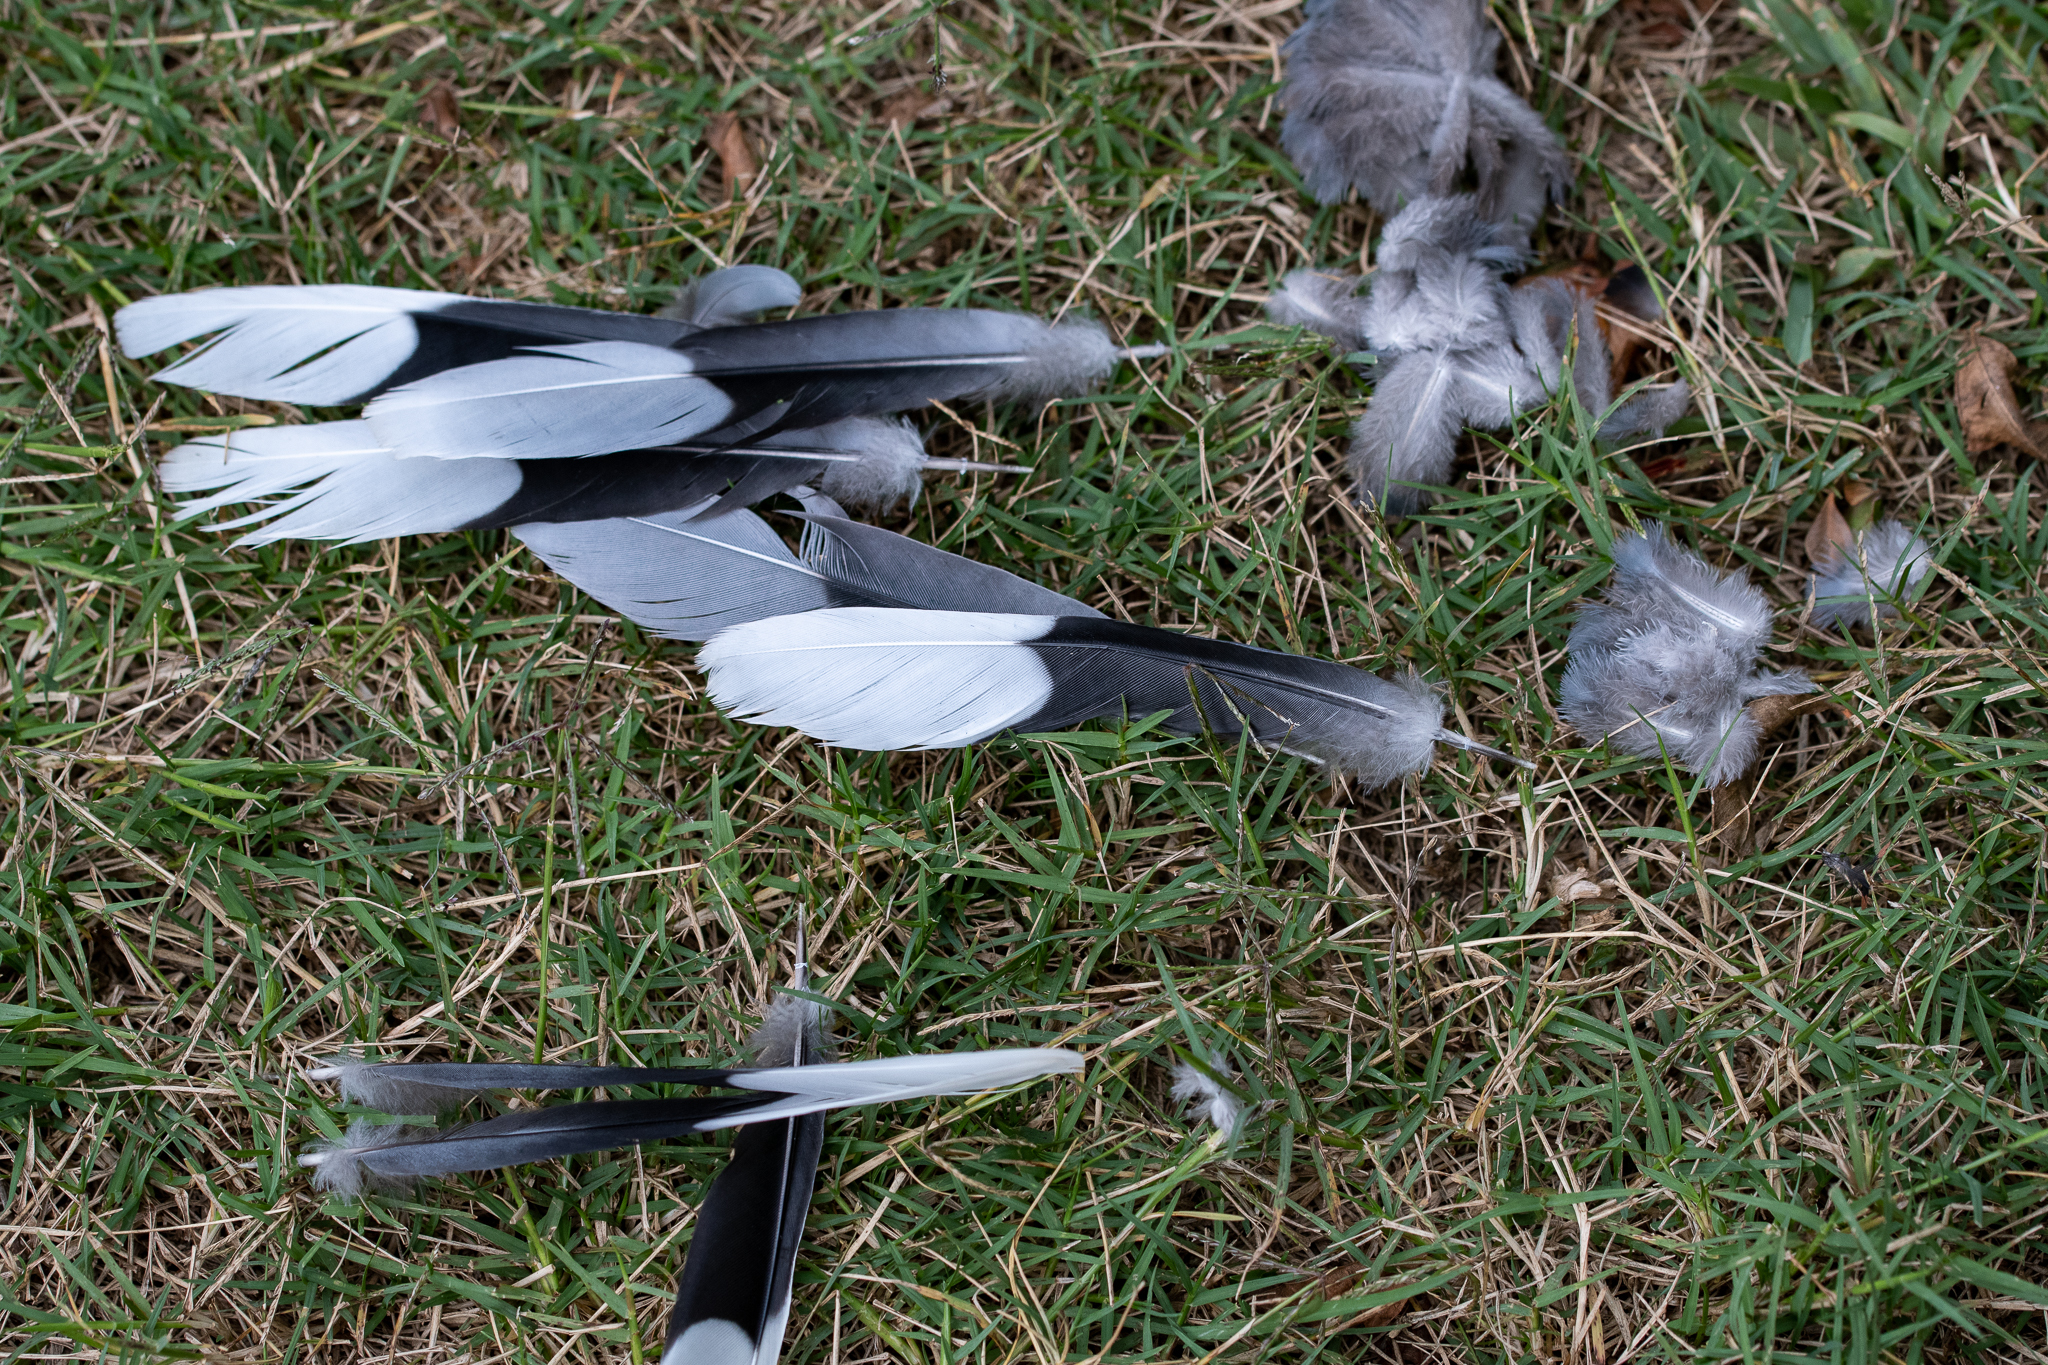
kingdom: Animalia
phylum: Chordata
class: Aves
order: Columbiformes
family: Columbidae
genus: Spilopelia
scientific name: Spilopelia senegalensis
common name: Laughing dove
